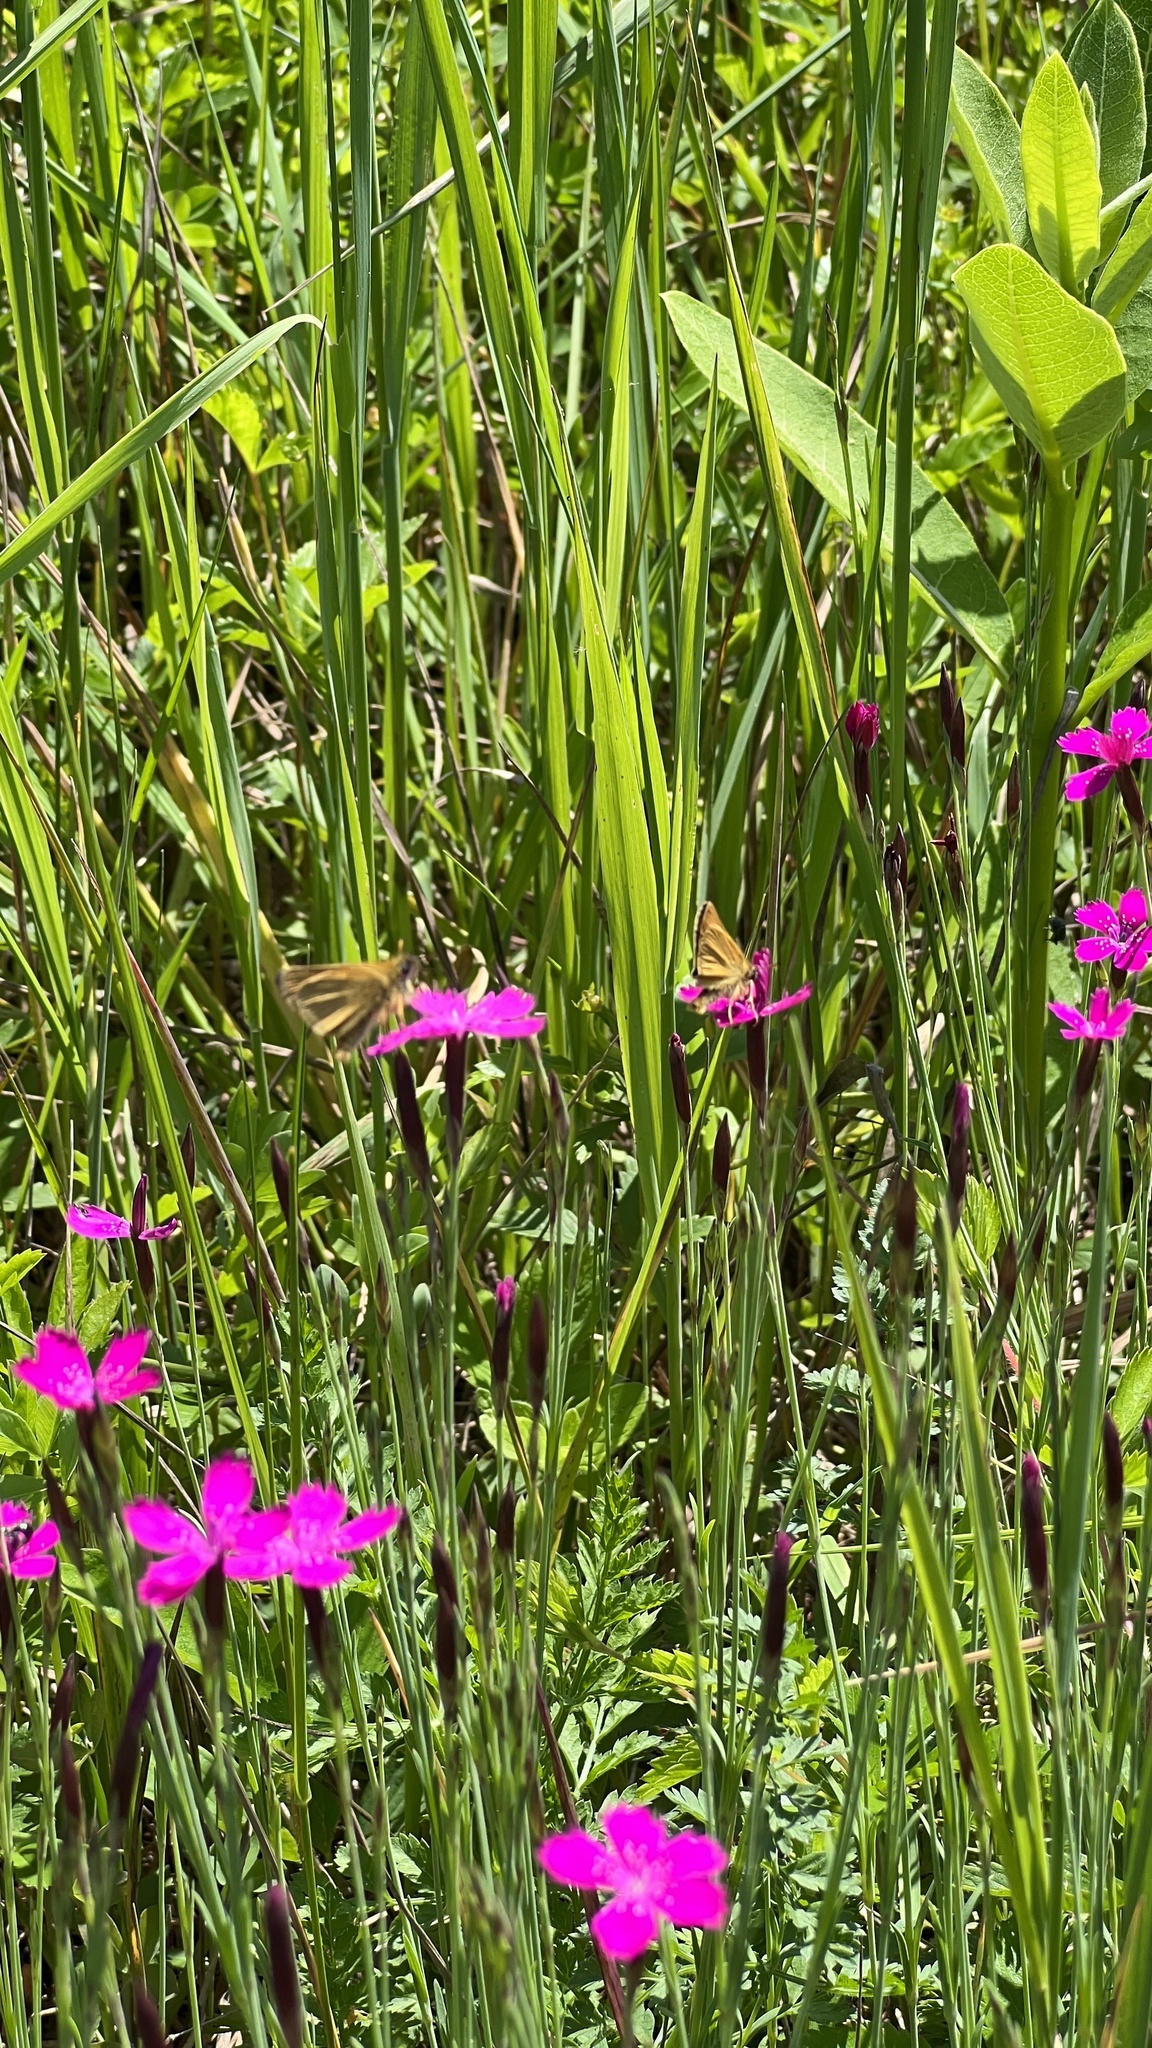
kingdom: Plantae
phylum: Tracheophyta
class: Magnoliopsida
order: Caryophyllales
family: Caryophyllaceae
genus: Dianthus
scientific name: Dianthus deltoides
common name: Maiden pink
